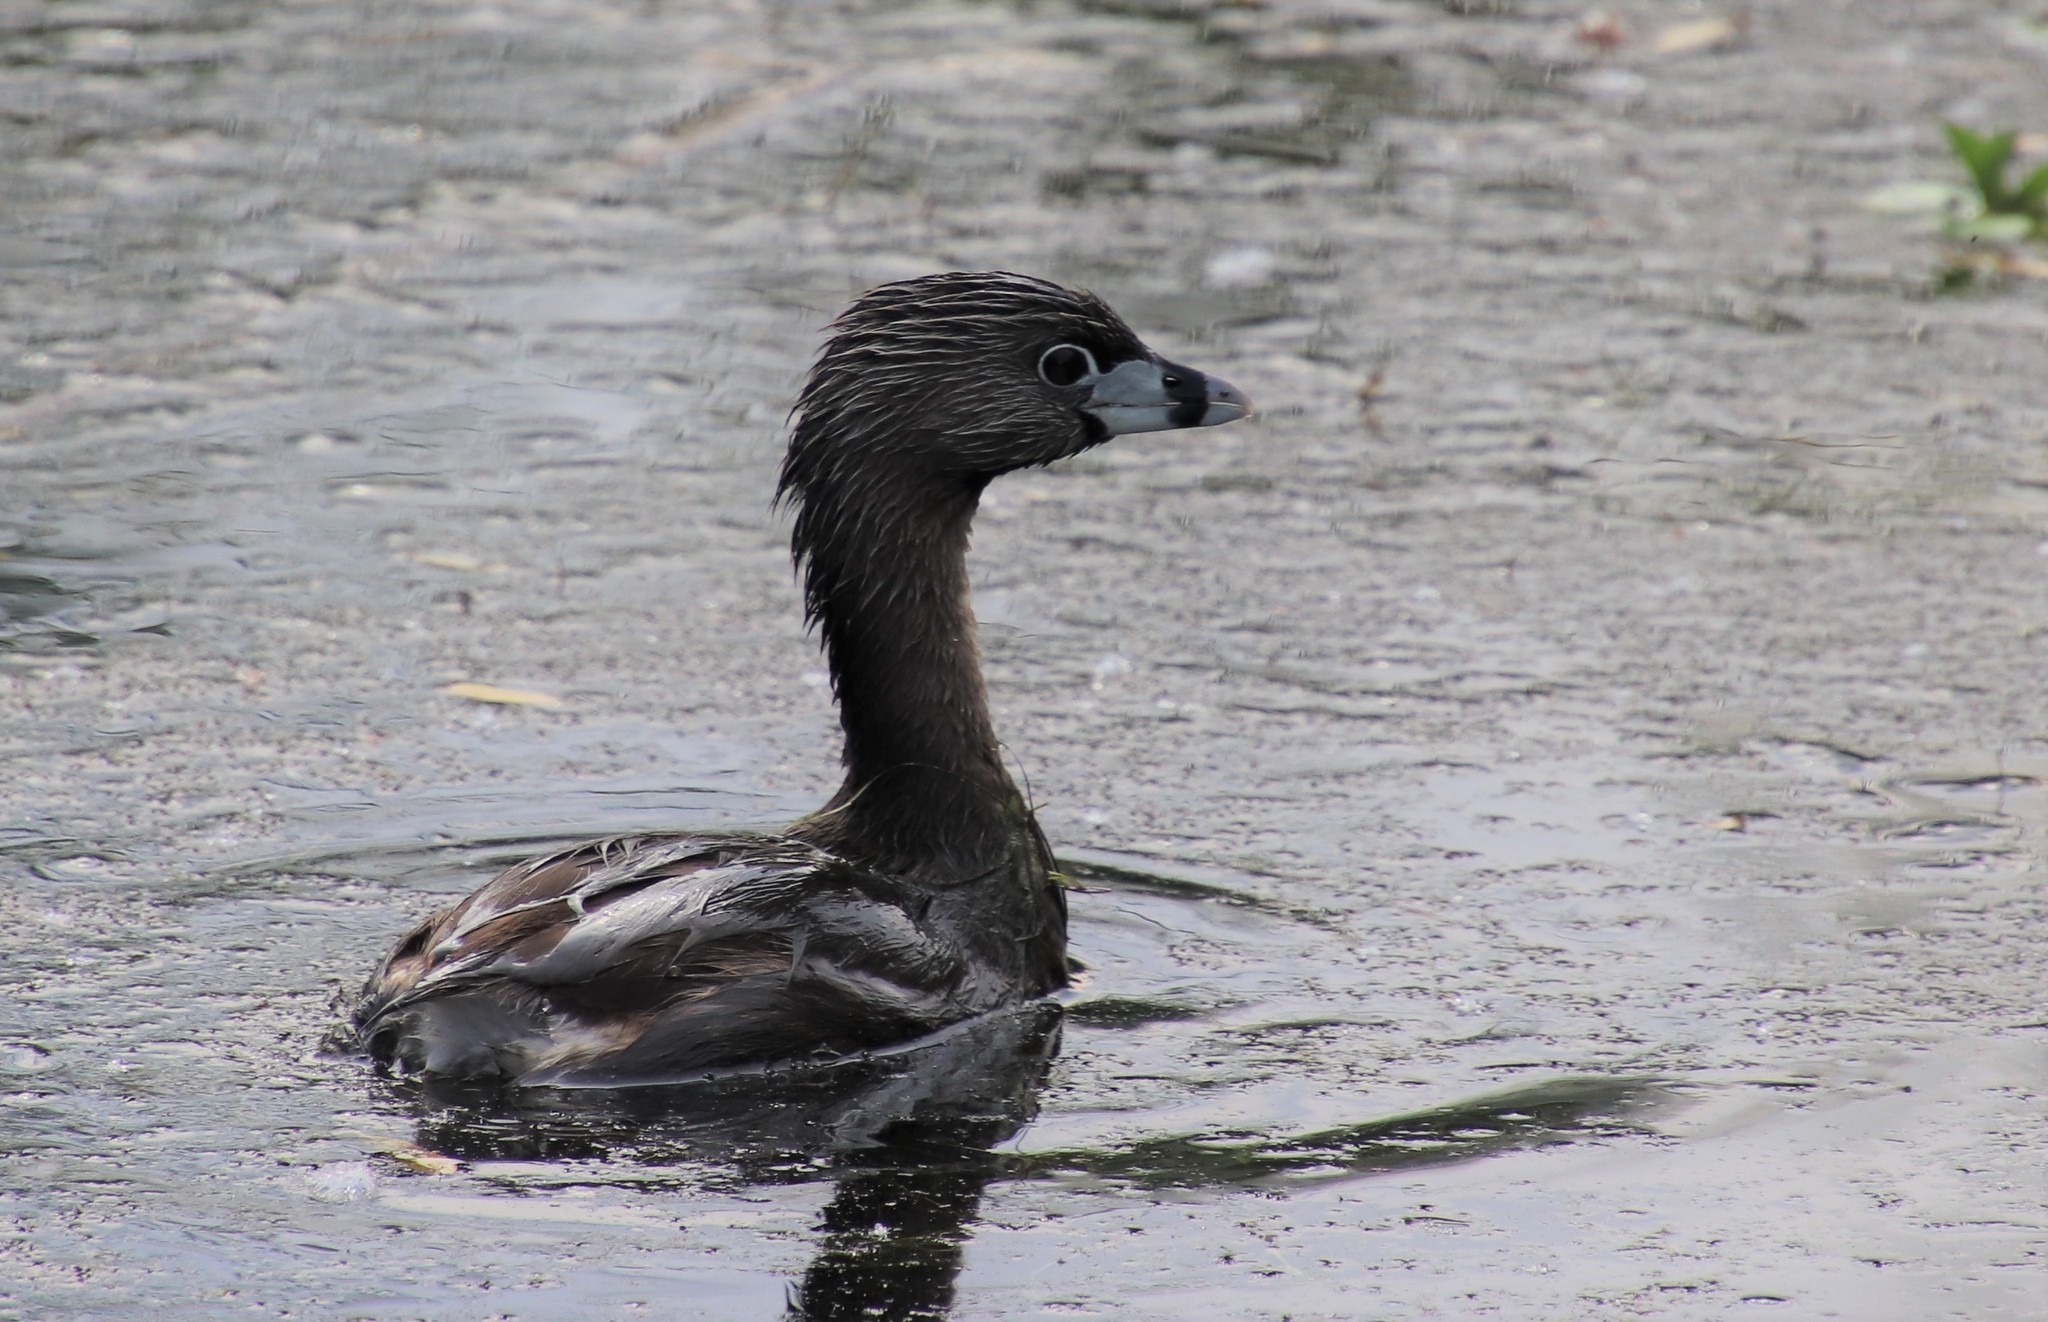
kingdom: Animalia
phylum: Chordata
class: Aves
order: Podicipediformes
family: Podicipedidae
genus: Podilymbus
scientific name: Podilymbus podiceps
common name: Pied-billed grebe
